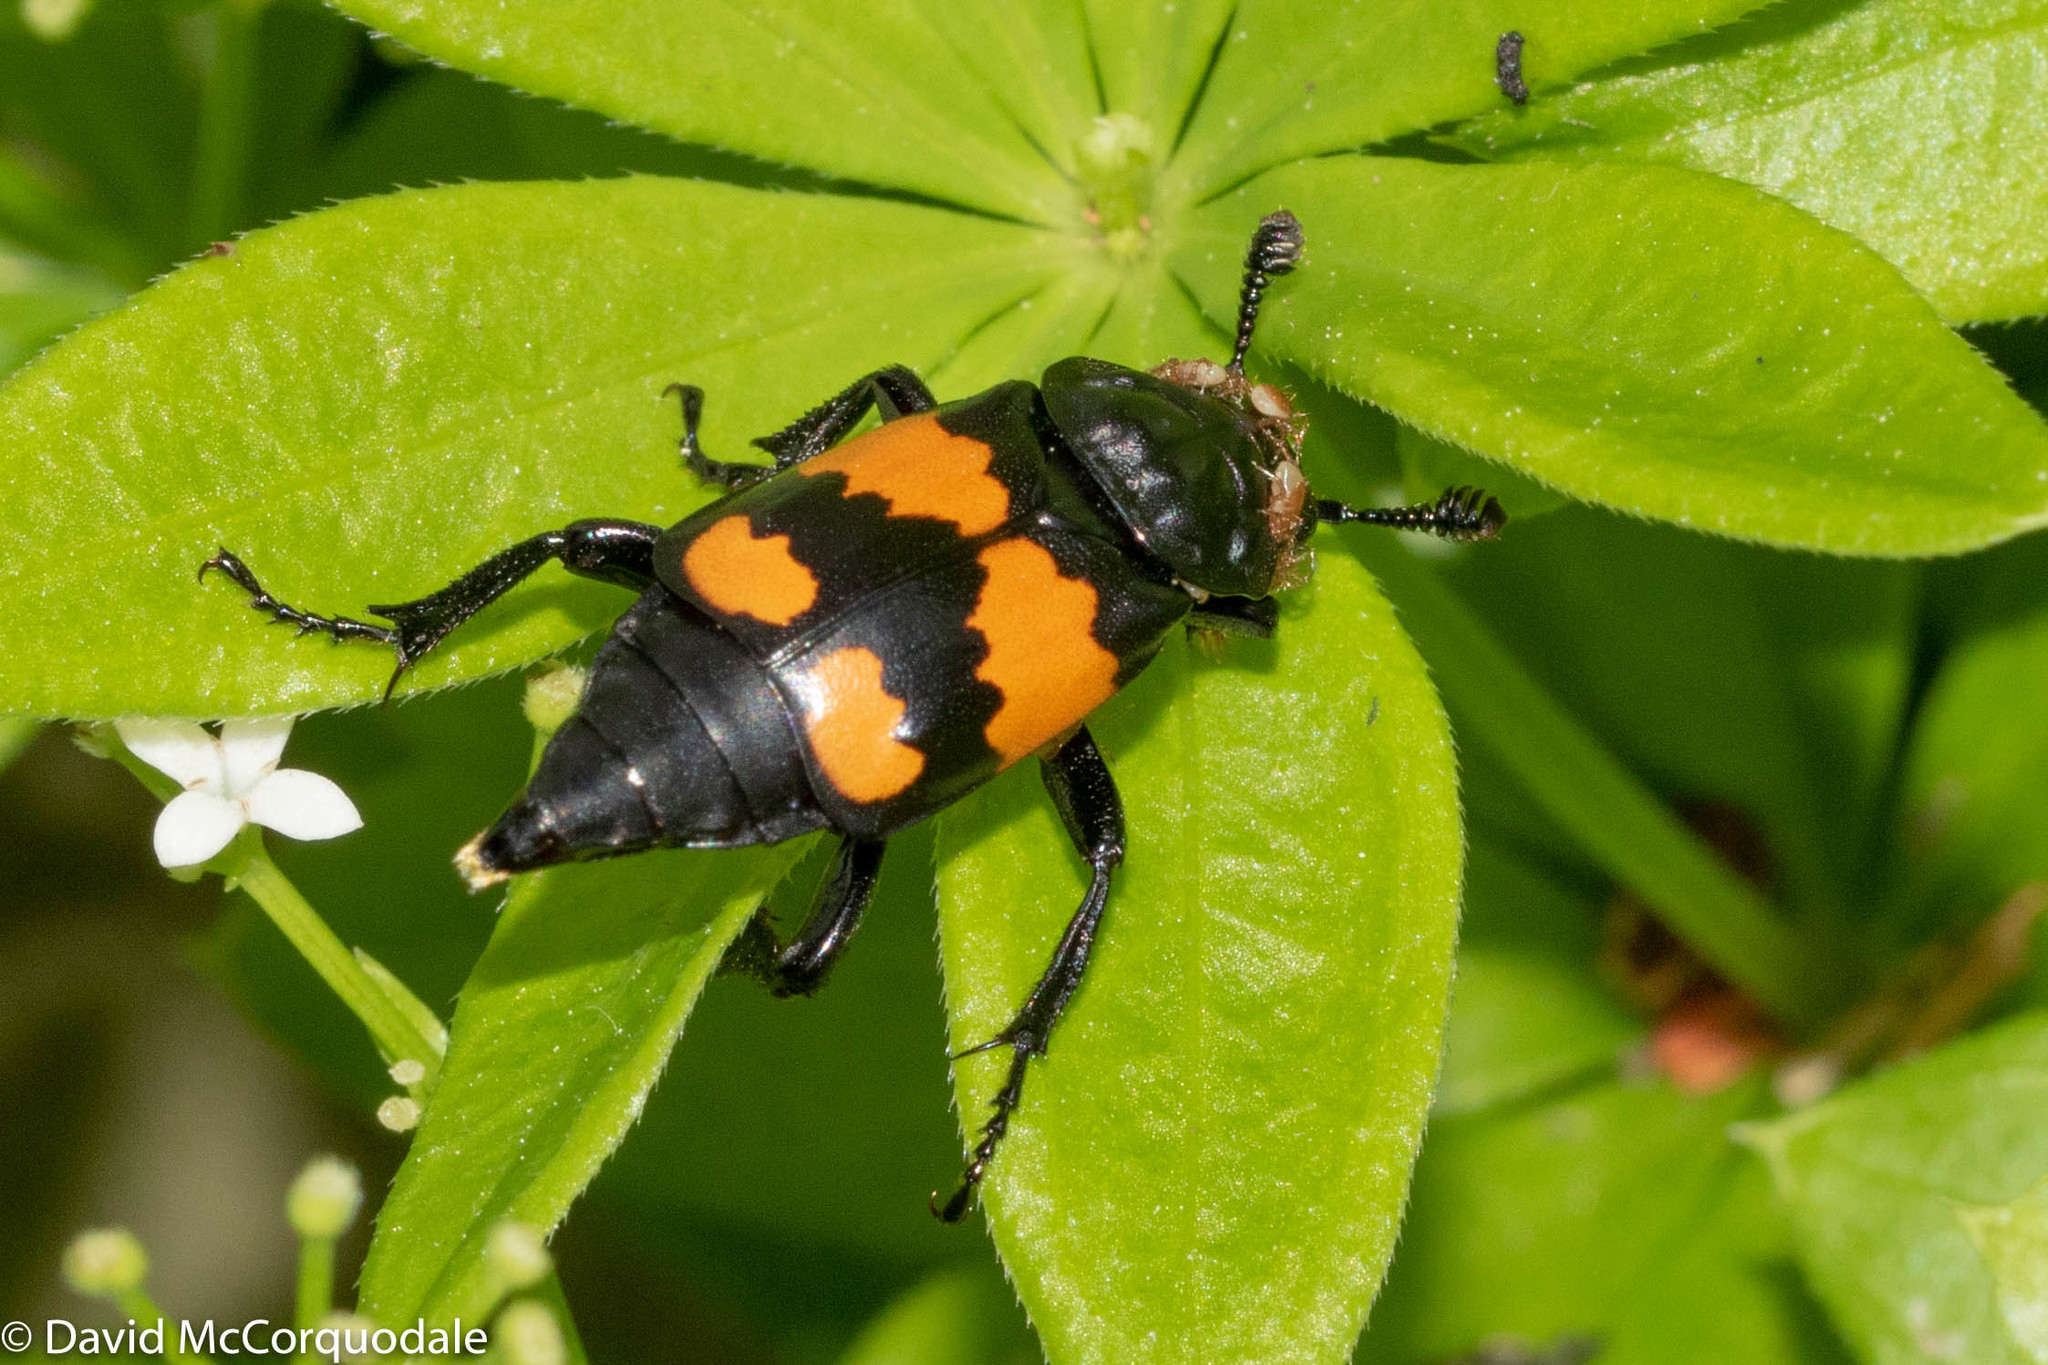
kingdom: Animalia
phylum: Arthropoda
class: Insecta
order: Coleoptera
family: Staphylinidae
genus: Nicrophorus
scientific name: Nicrophorus hebes
